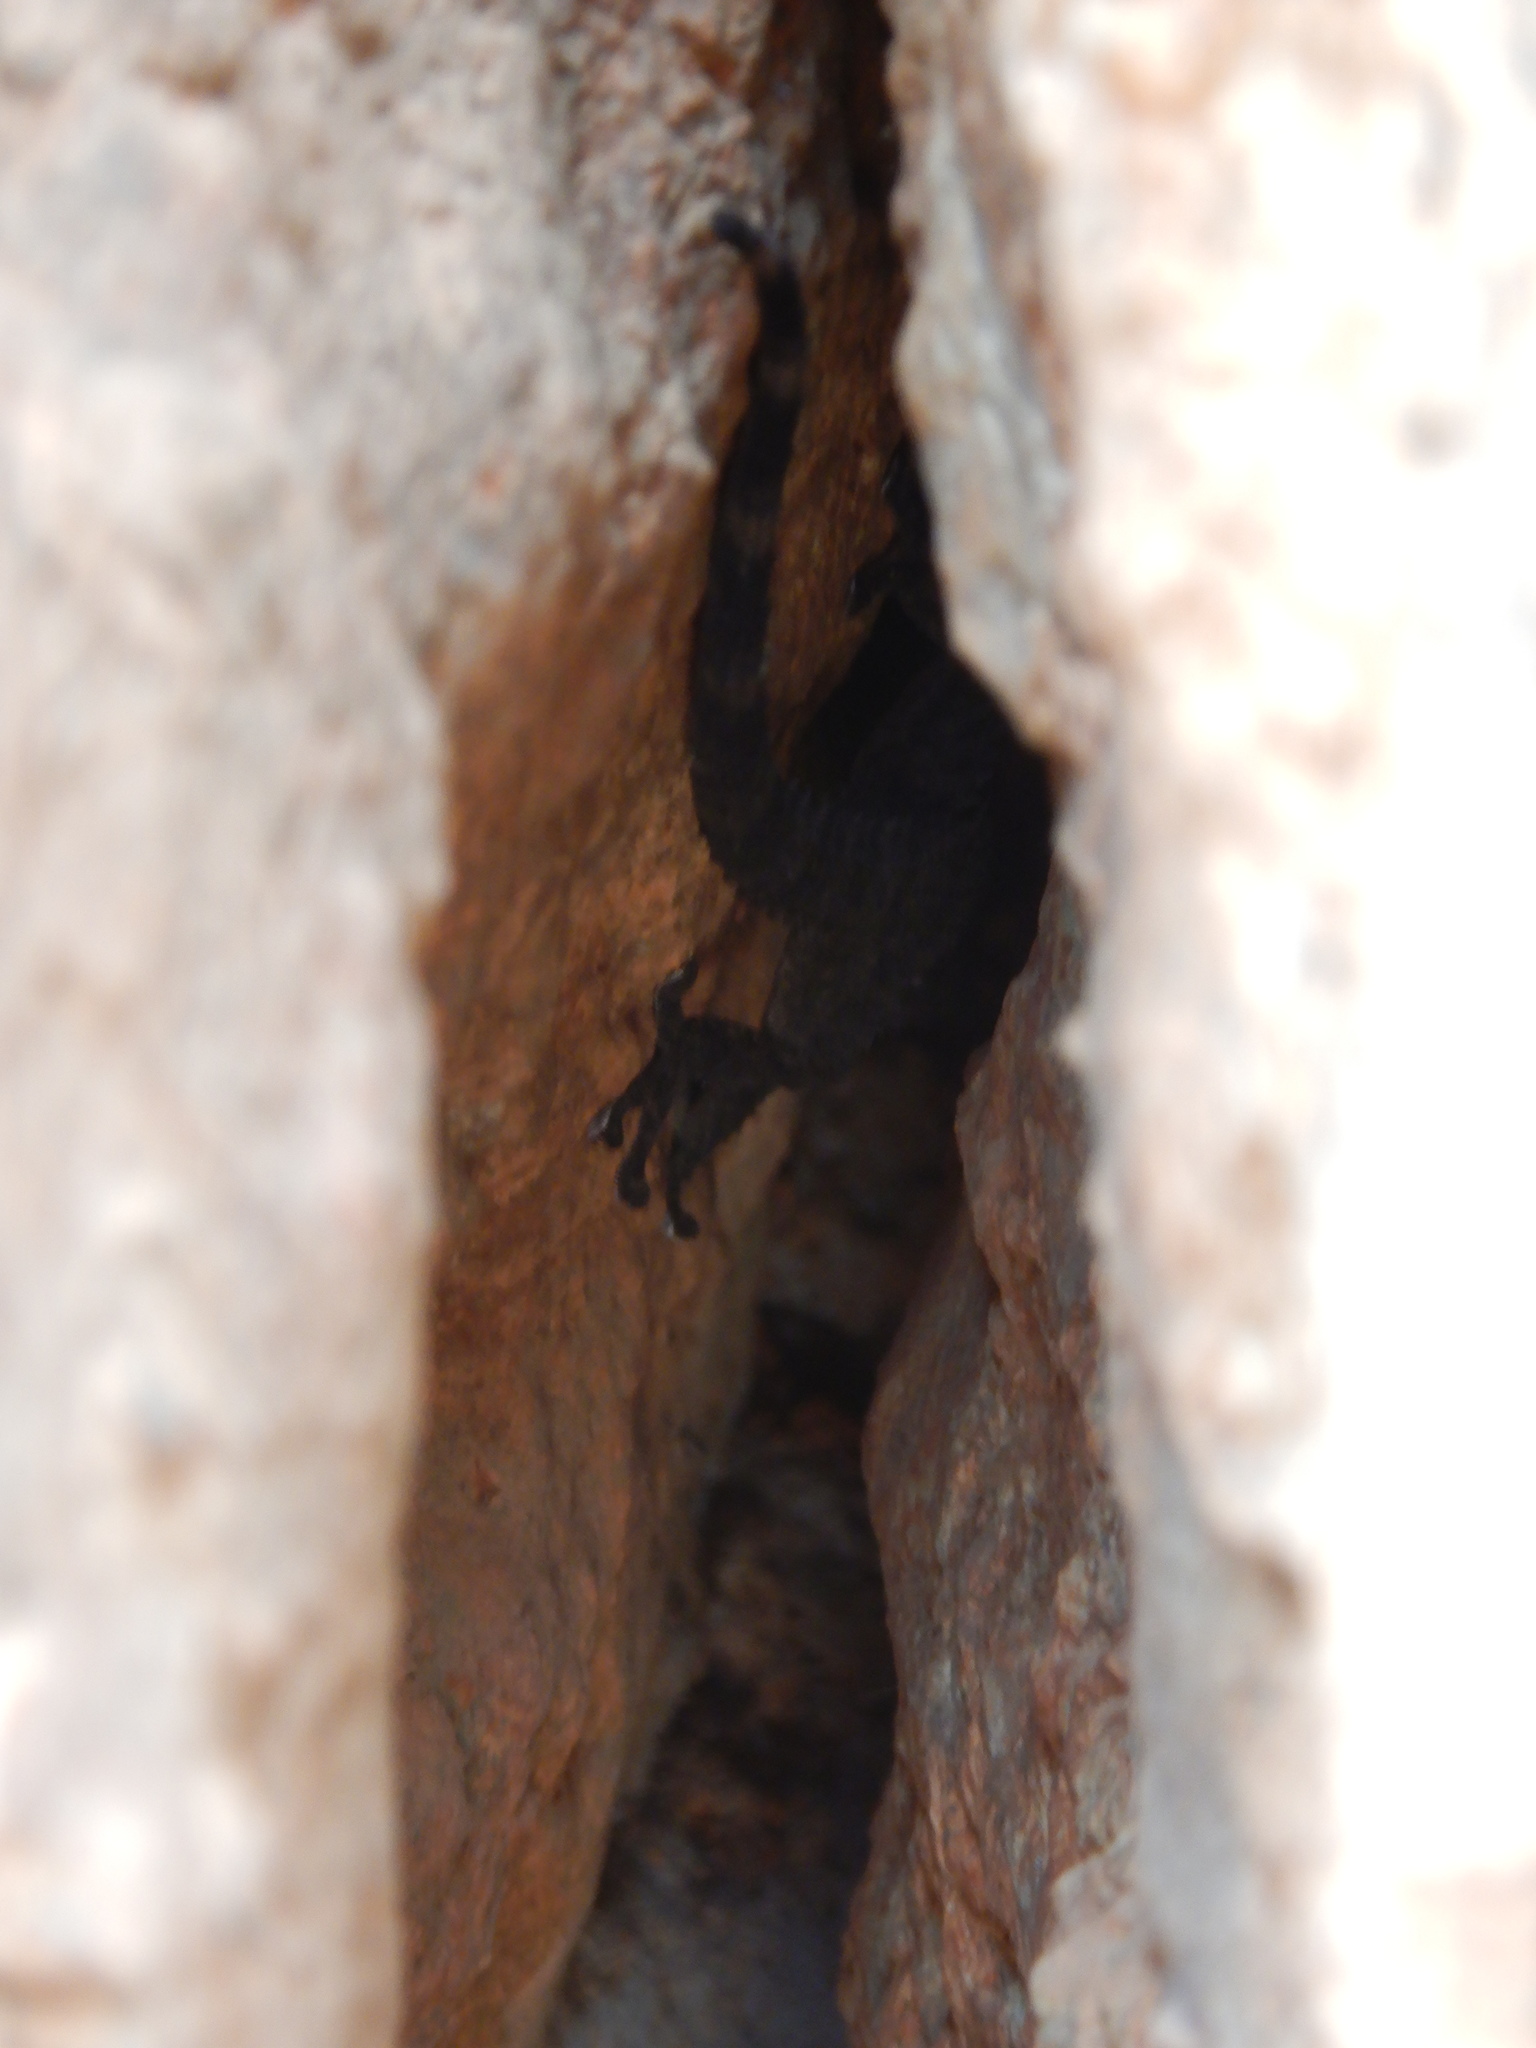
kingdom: Animalia
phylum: Chordata
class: Squamata
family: Phyllodactylidae
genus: Tarentola
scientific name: Tarentola mauritanica
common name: Moorish gecko
